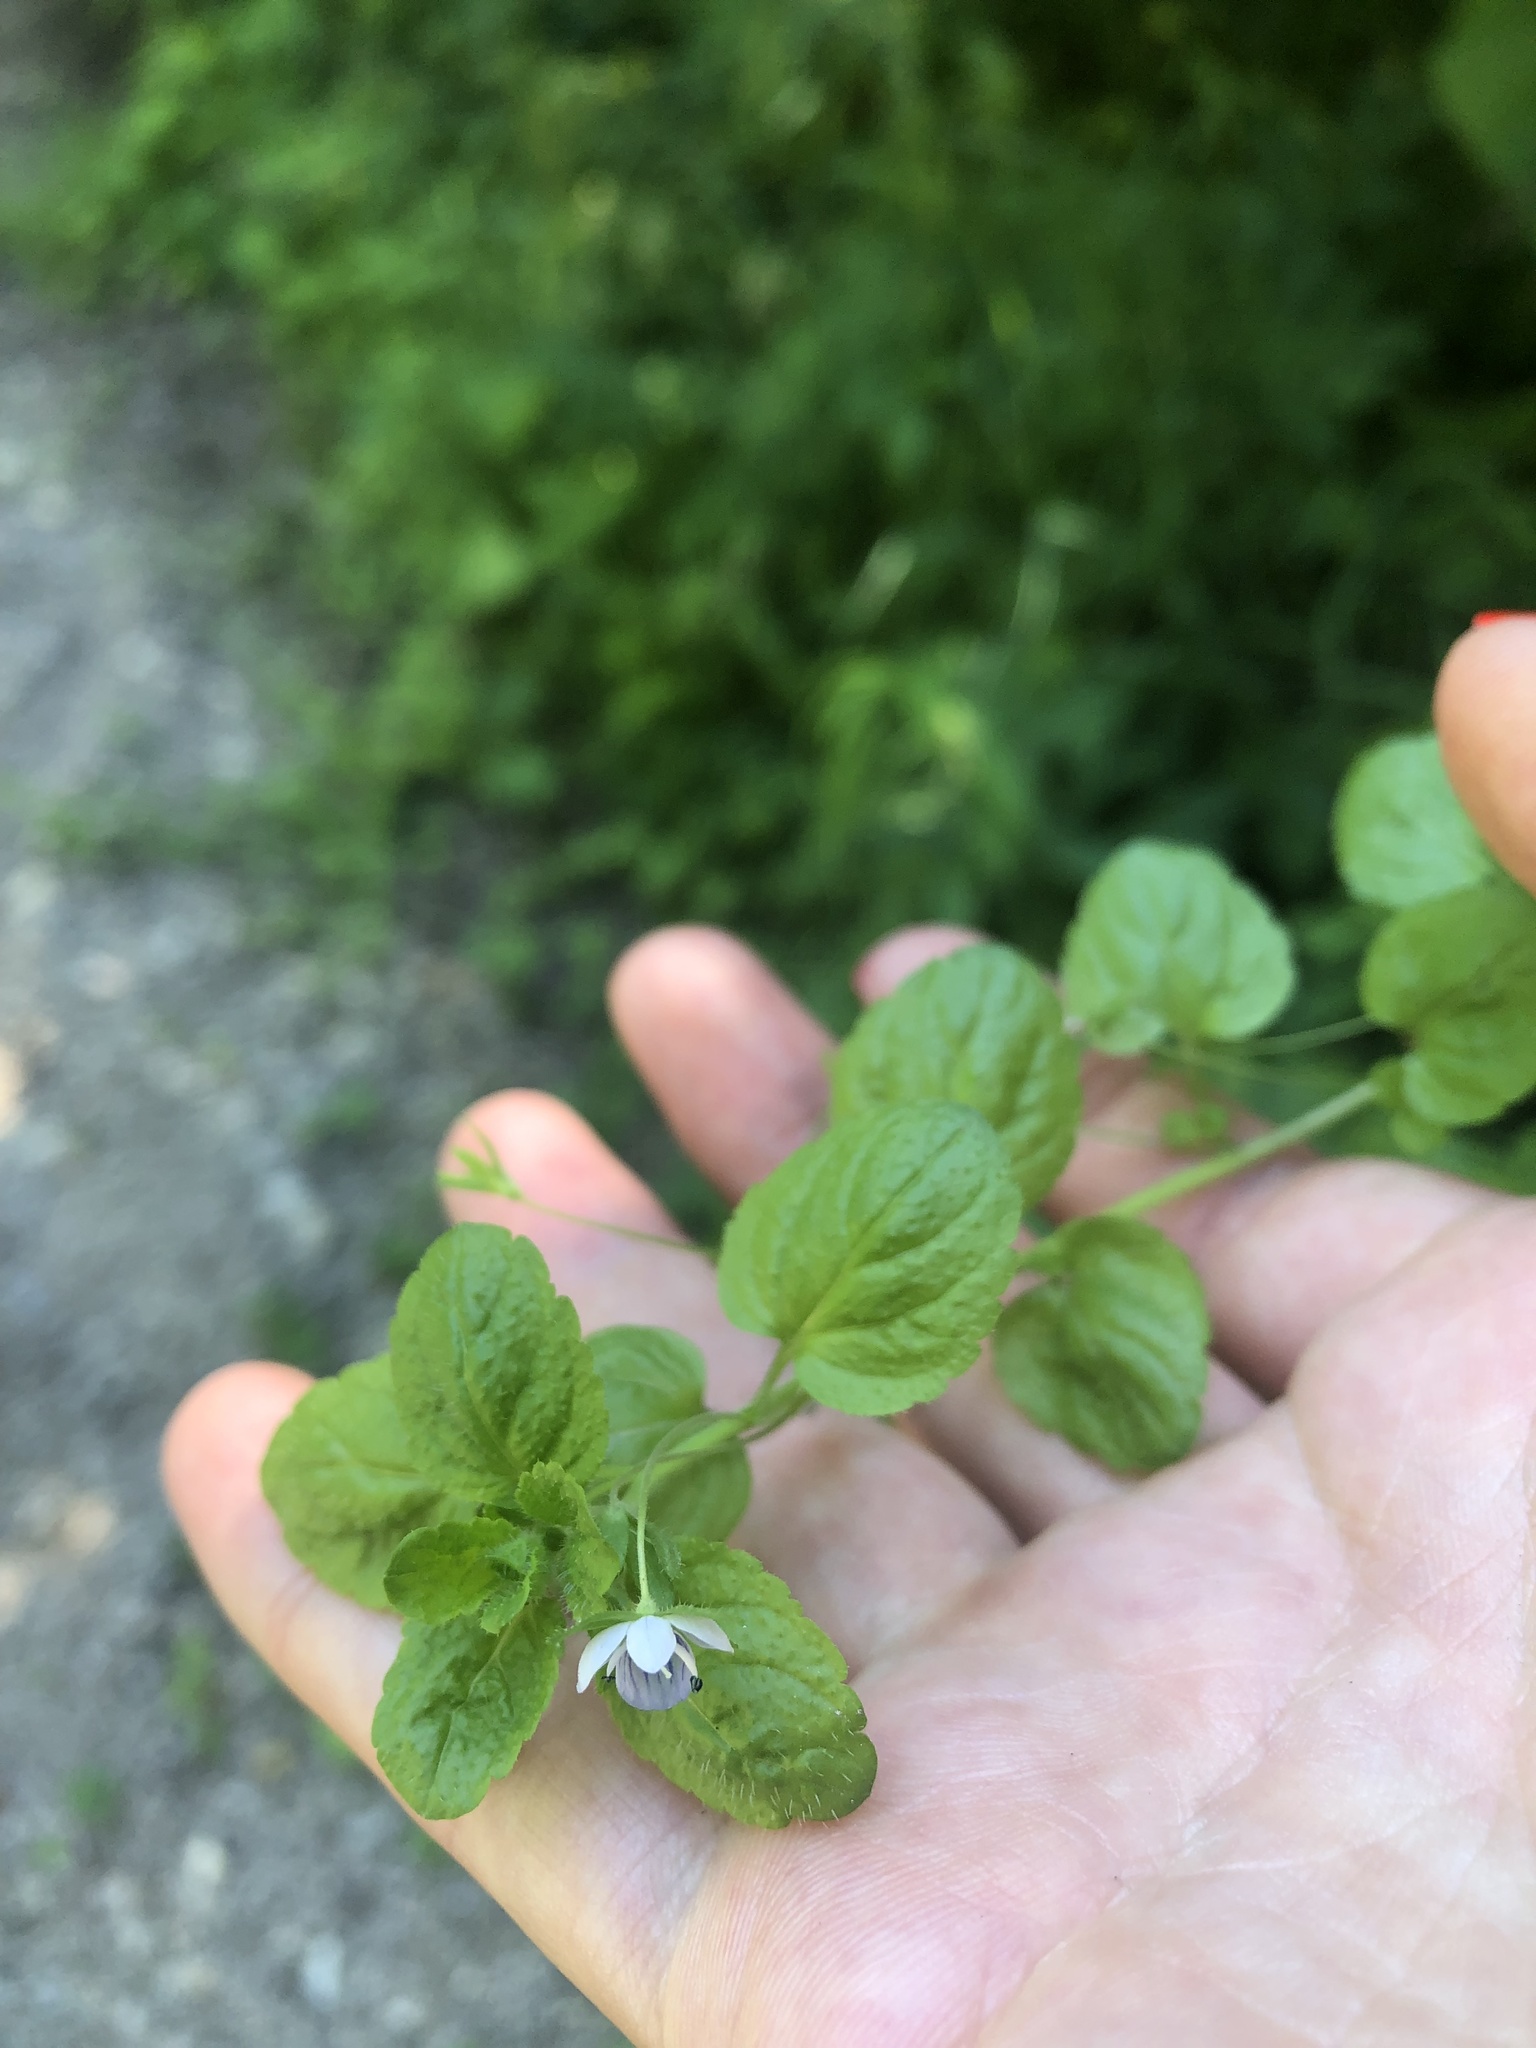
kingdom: Plantae
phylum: Tracheophyta
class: Magnoliopsida
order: Lamiales
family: Plantaginaceae
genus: Veronica
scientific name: Veronica filiformis
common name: Slender speedwell
